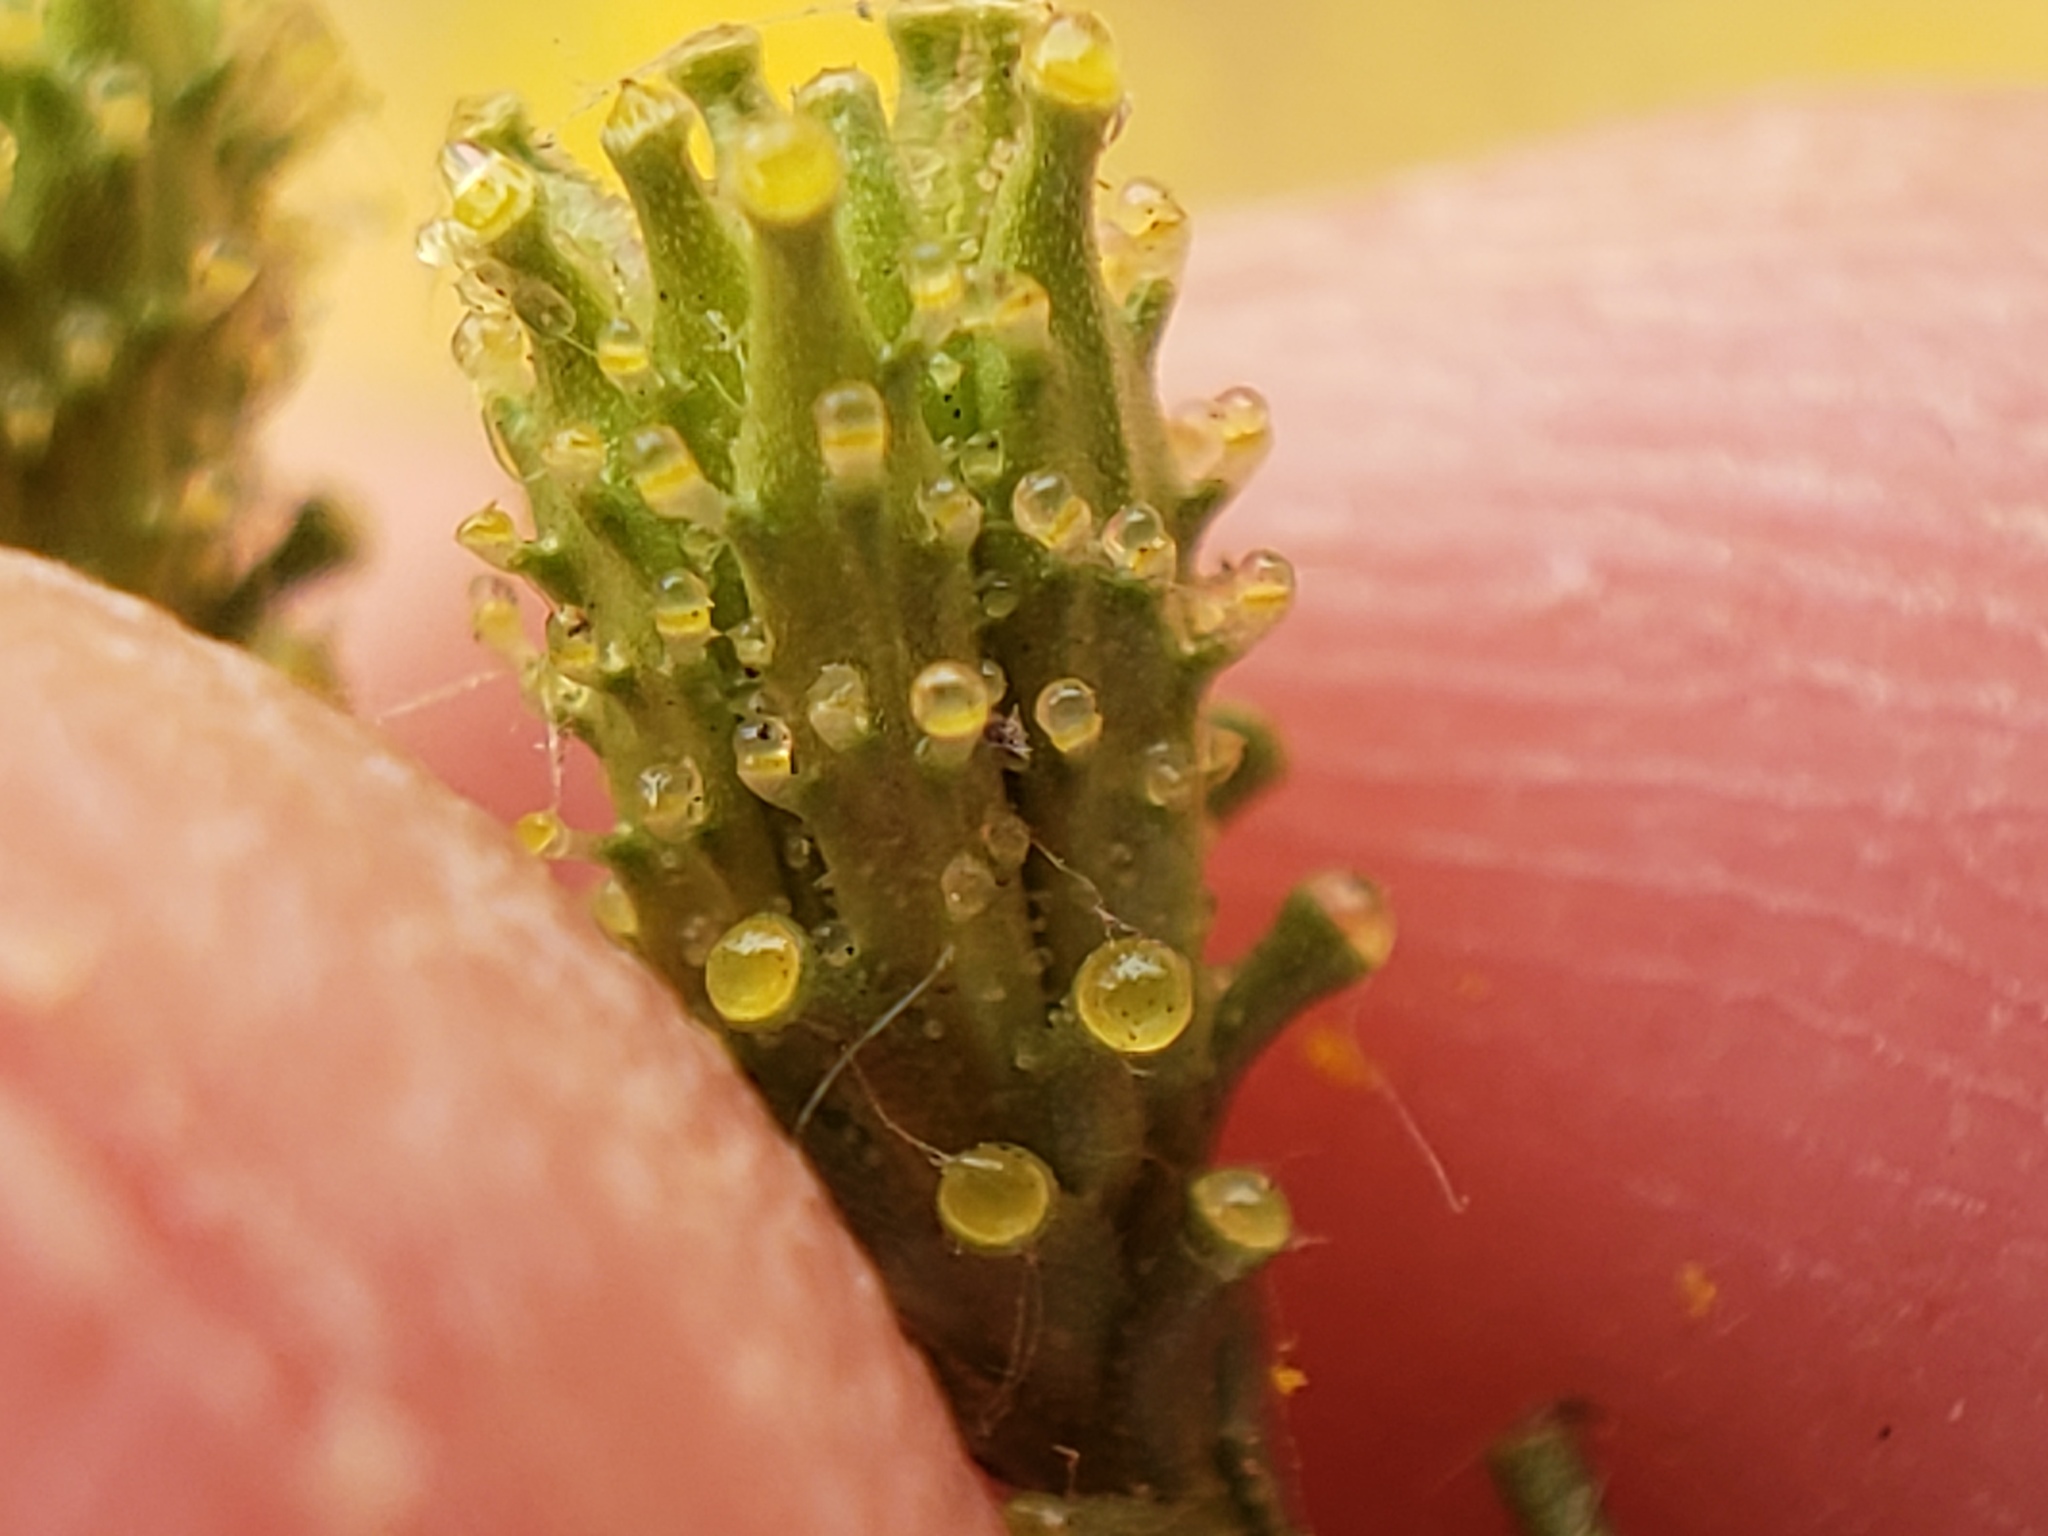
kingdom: Plantae
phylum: Tracheophyta
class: Magnoliopsida
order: Asterales
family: Asteraceae
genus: Holocarpha
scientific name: Holocarpha virgata
